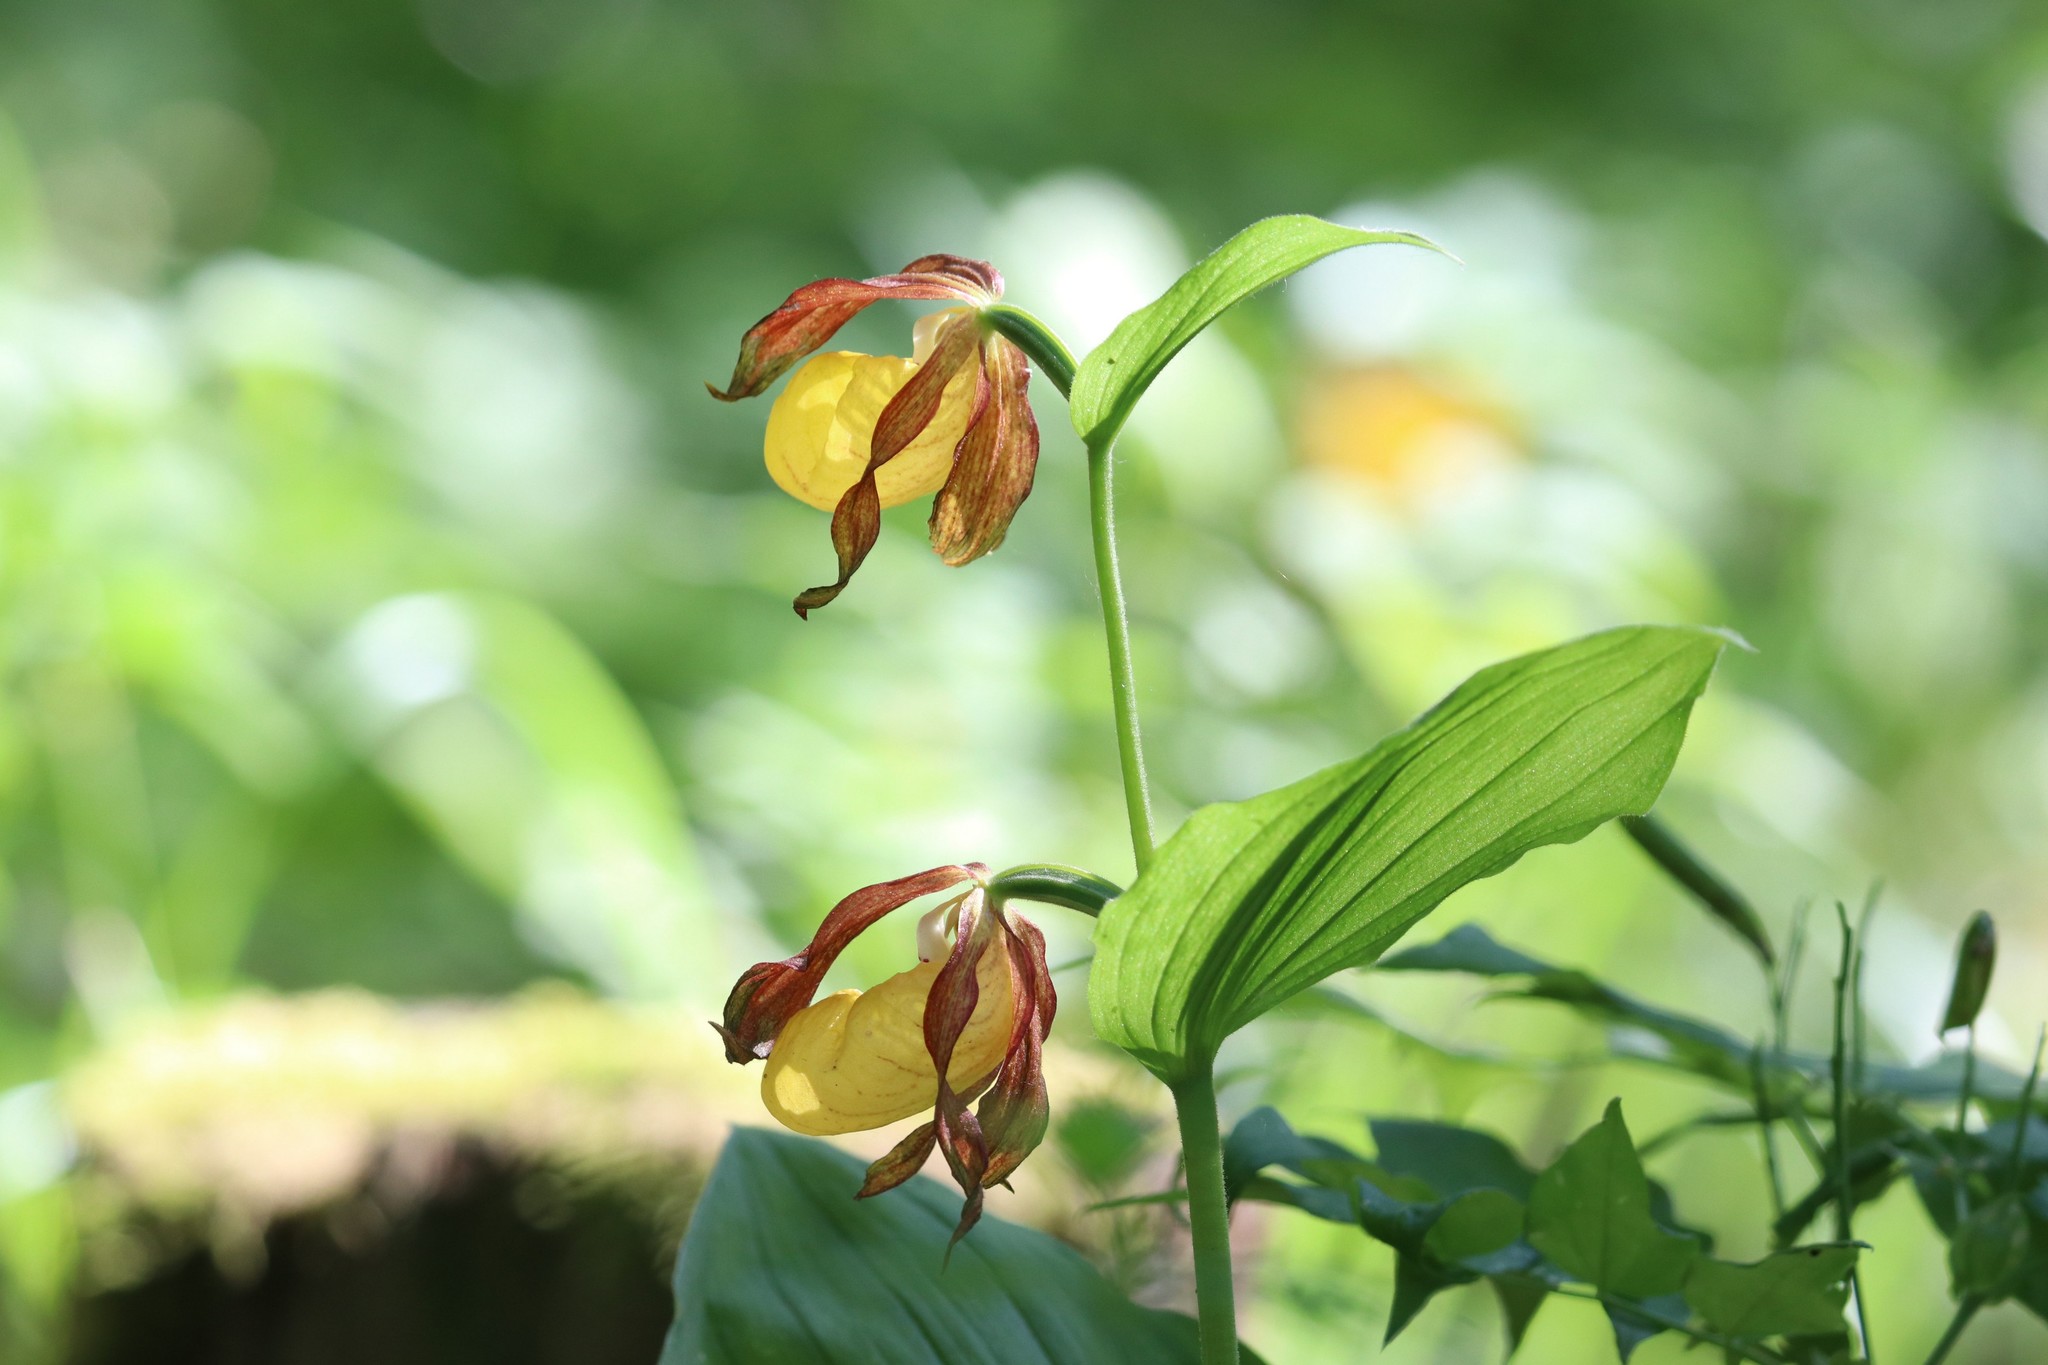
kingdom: Plantae
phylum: Tracheophyta
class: Liliopsida
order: Asparagales
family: Orchidaceae
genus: Cypripedium
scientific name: Cypripedium calceolus
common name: Lady's-slipper
